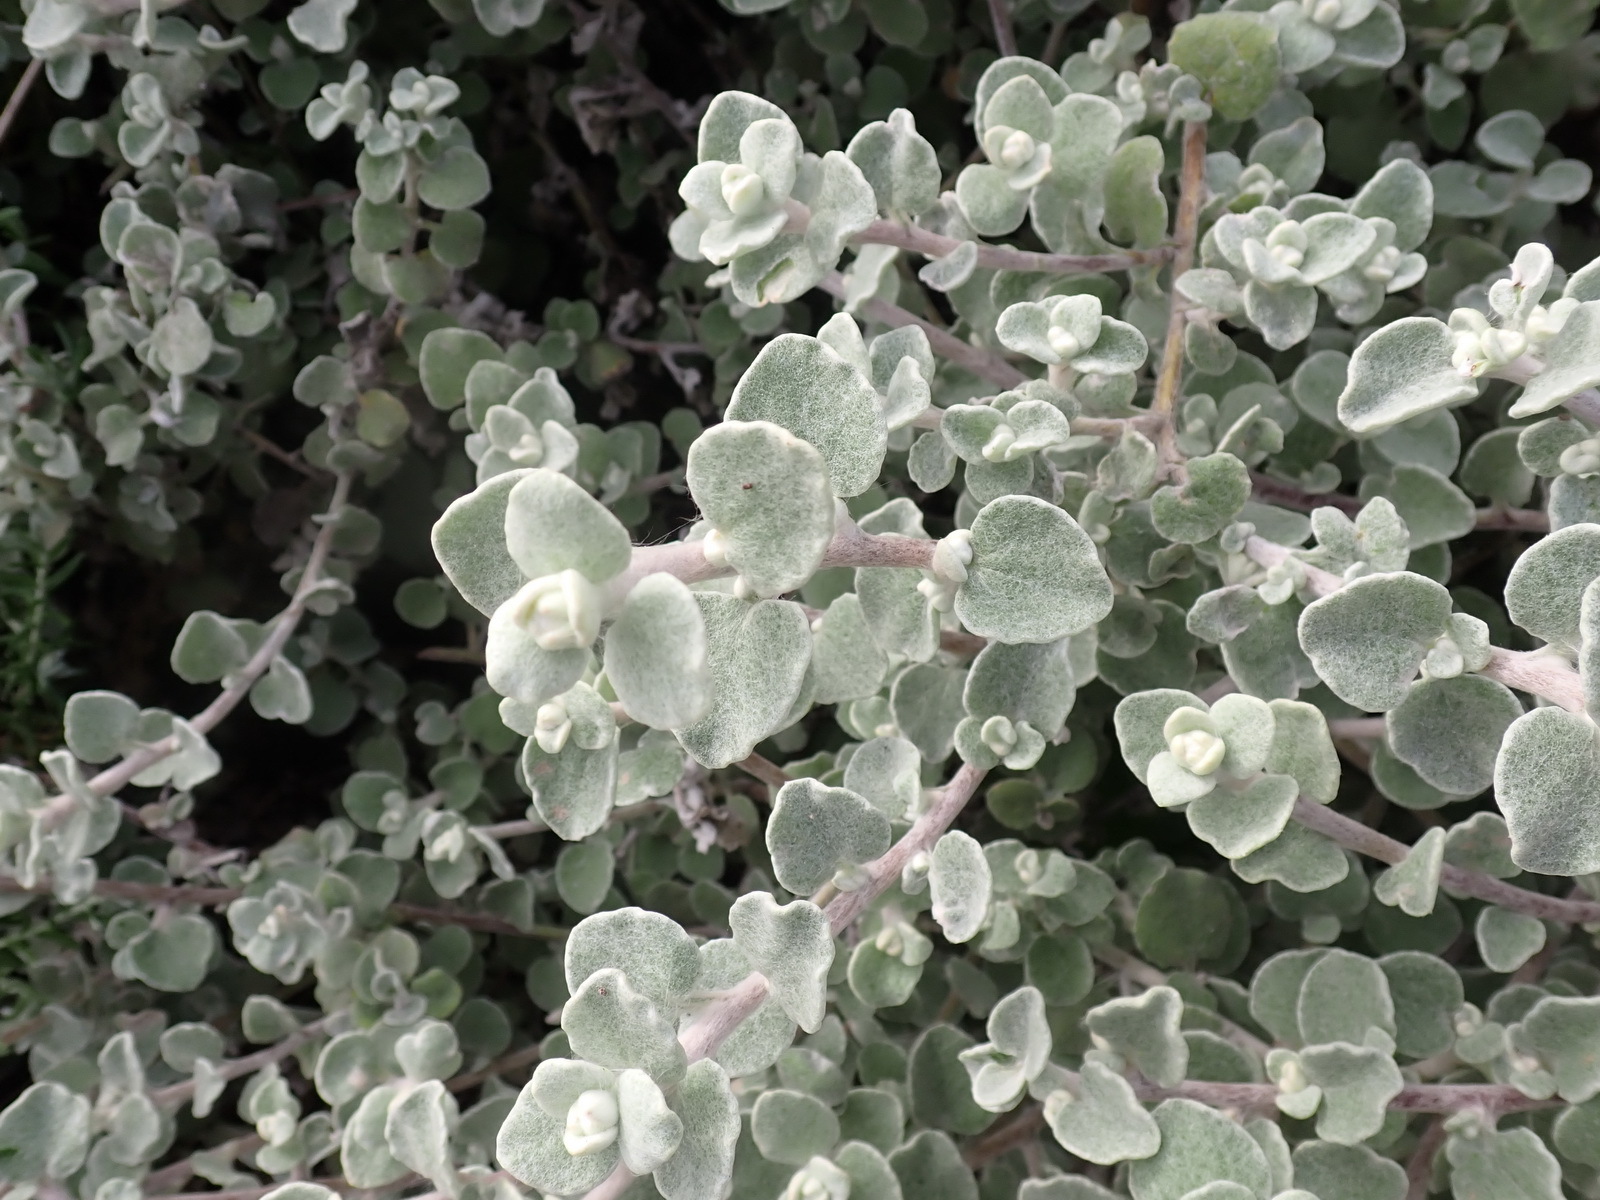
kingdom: Plantae
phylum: Tracheophyta
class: Magnoliopsida
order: Asterales
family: Asteraceae
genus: Helichrysum
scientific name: Helichrysum petiolare
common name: Licorice-plant
